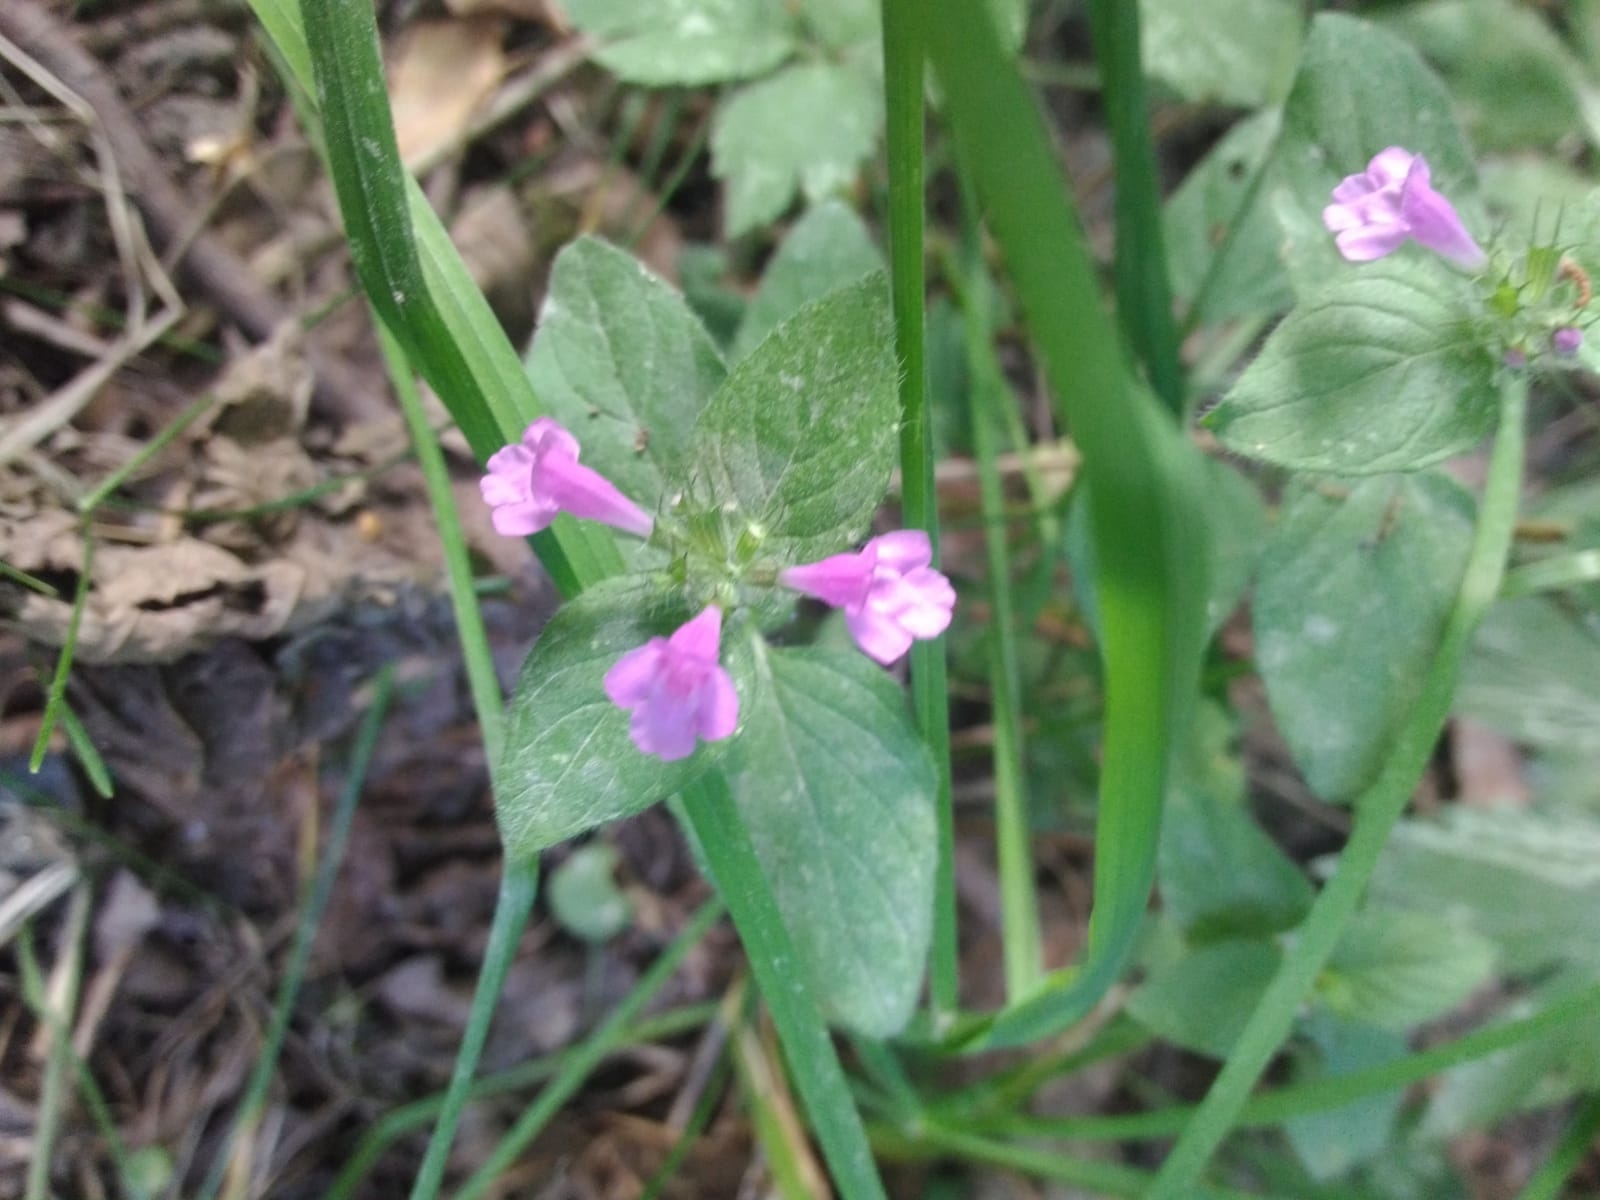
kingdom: Plantae
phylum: Tracheophyta
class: Magnoliopsida
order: Lamiales
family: Lamiaceae
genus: Clinopodium
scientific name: Clinopodium vulgare
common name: Wild basil
